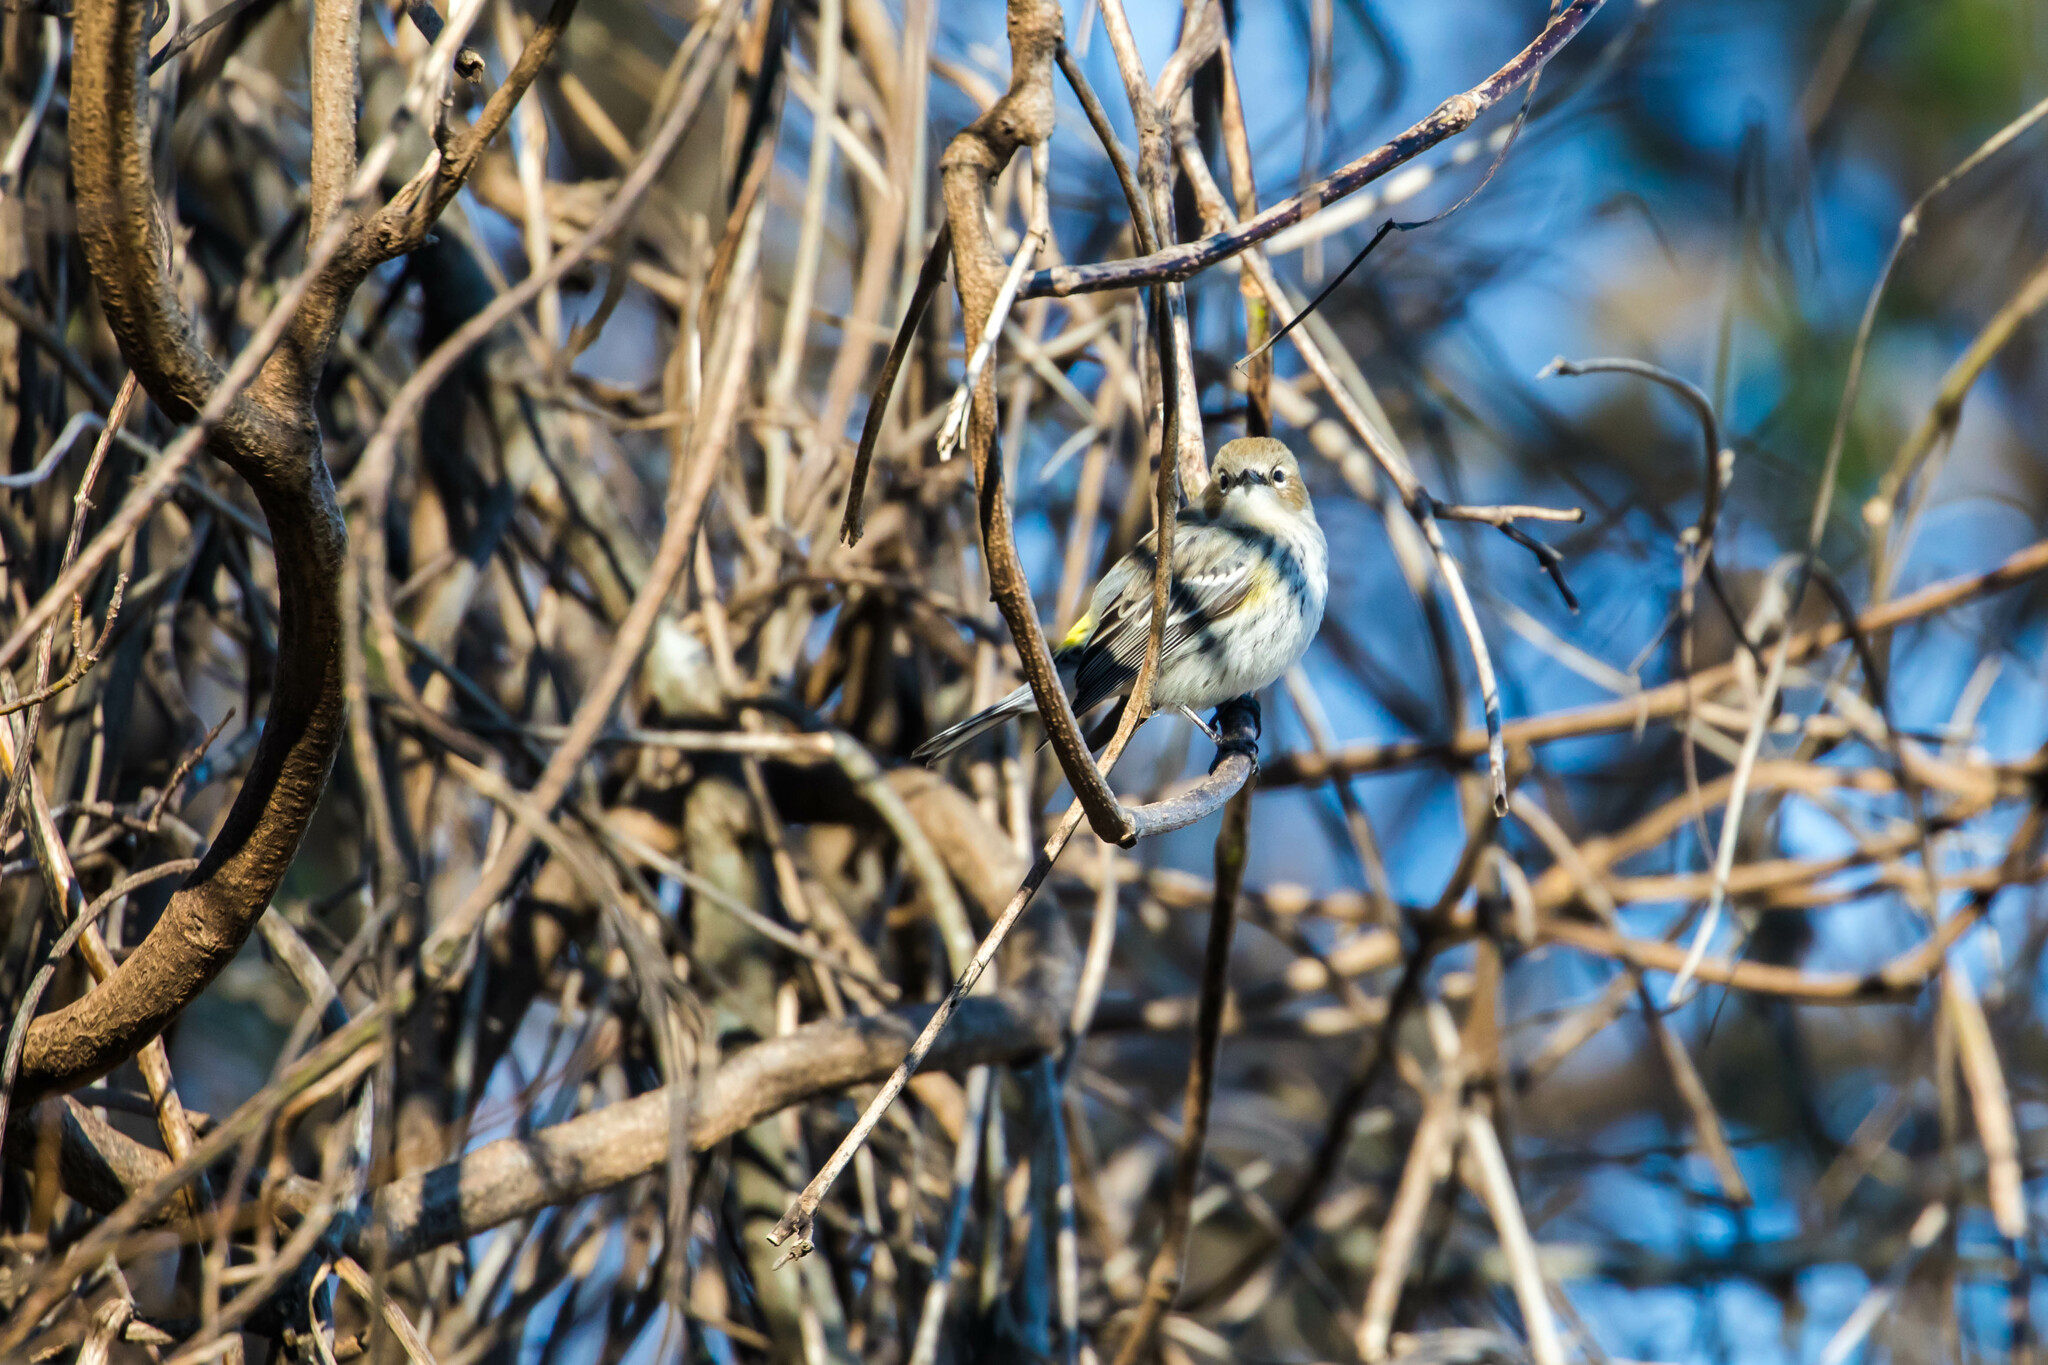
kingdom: Animalia
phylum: Chordata
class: Aves
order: Passeriformes
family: Parulidae
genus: Setophaga
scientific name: Setophaga coronata
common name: Myrtle warbler
